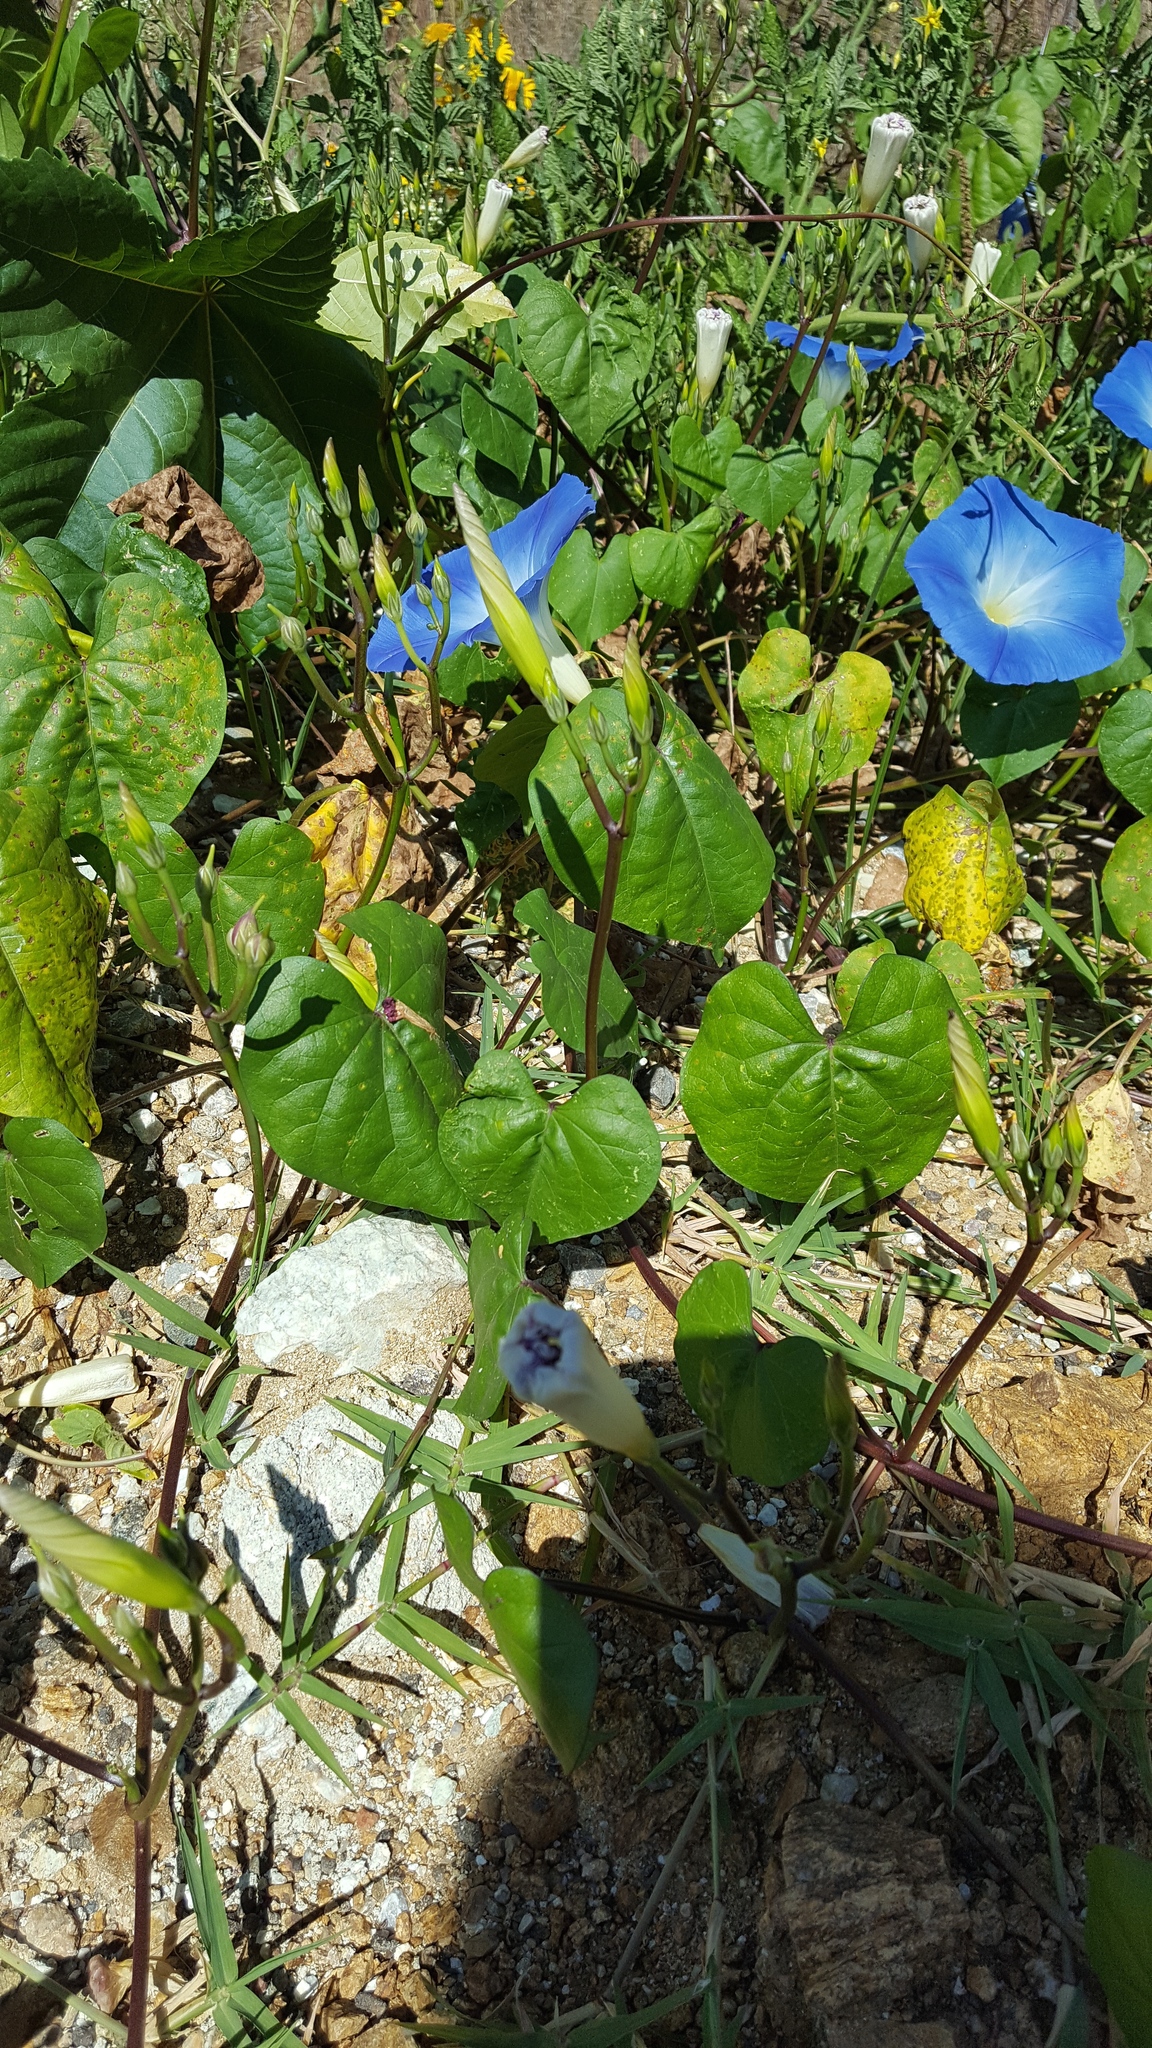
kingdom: Plantae
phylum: Tracheophyta
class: Magnoliopsida
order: Solanales
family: Convolvulaceae
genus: Ipomoea
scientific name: Ipomoea tricolor
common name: Morning-glory
